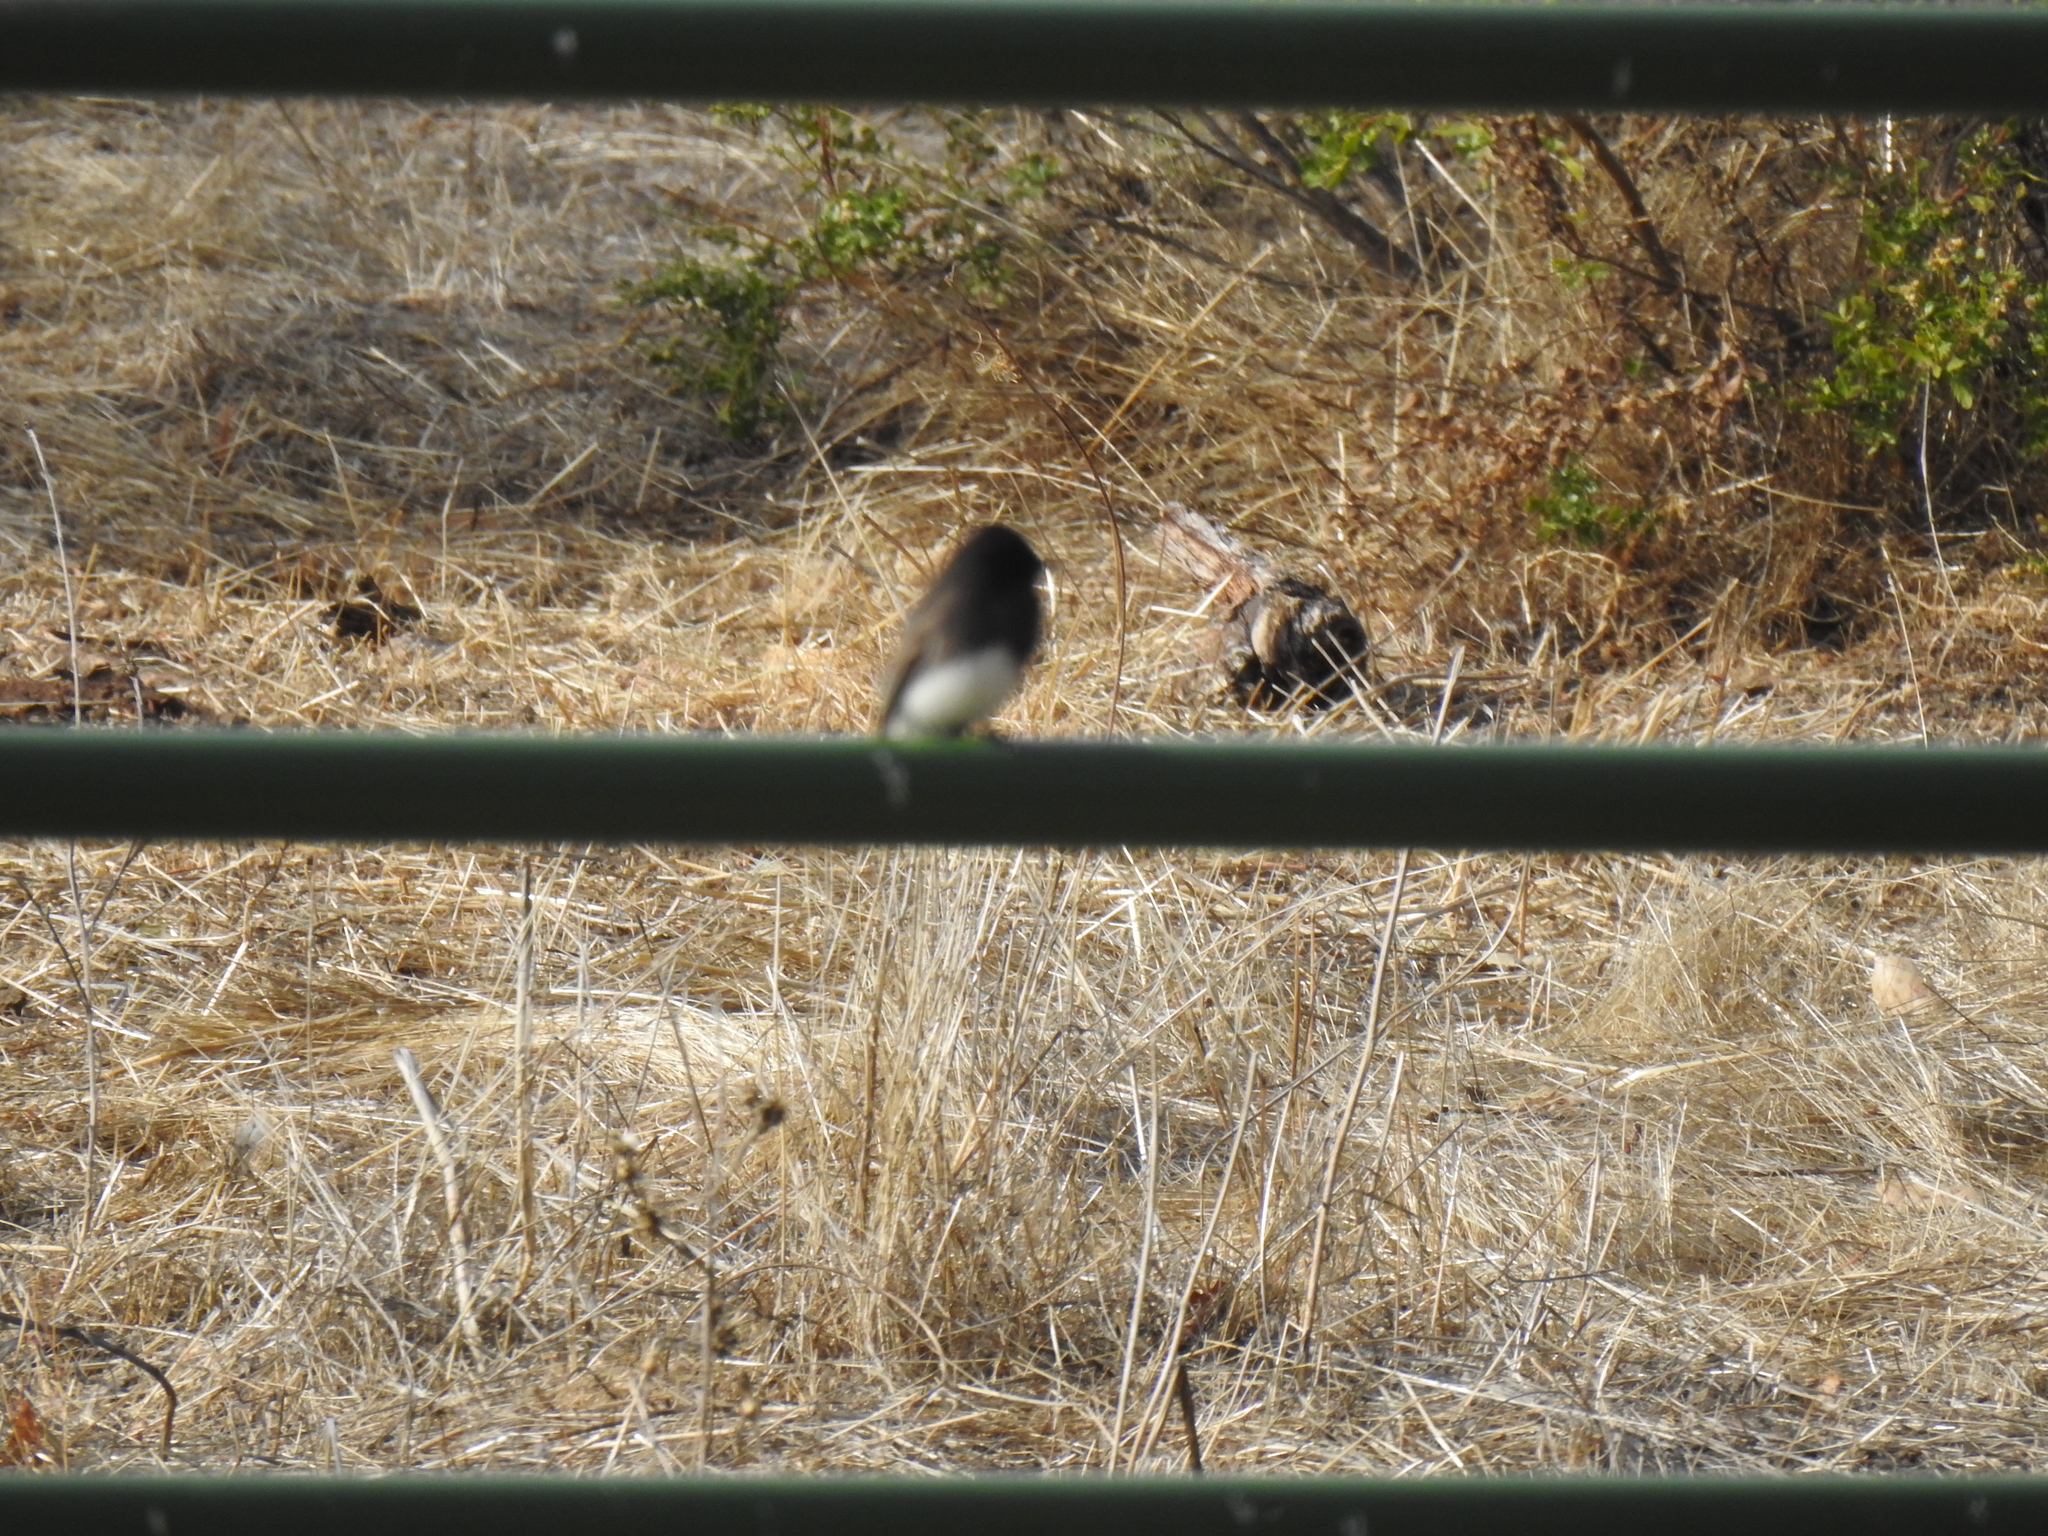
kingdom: Animalia
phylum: Chordata
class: Aves
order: Passeriformes
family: Tyrannidae
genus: Sayornis
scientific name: Sayornis nigricans
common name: Black phoebe
